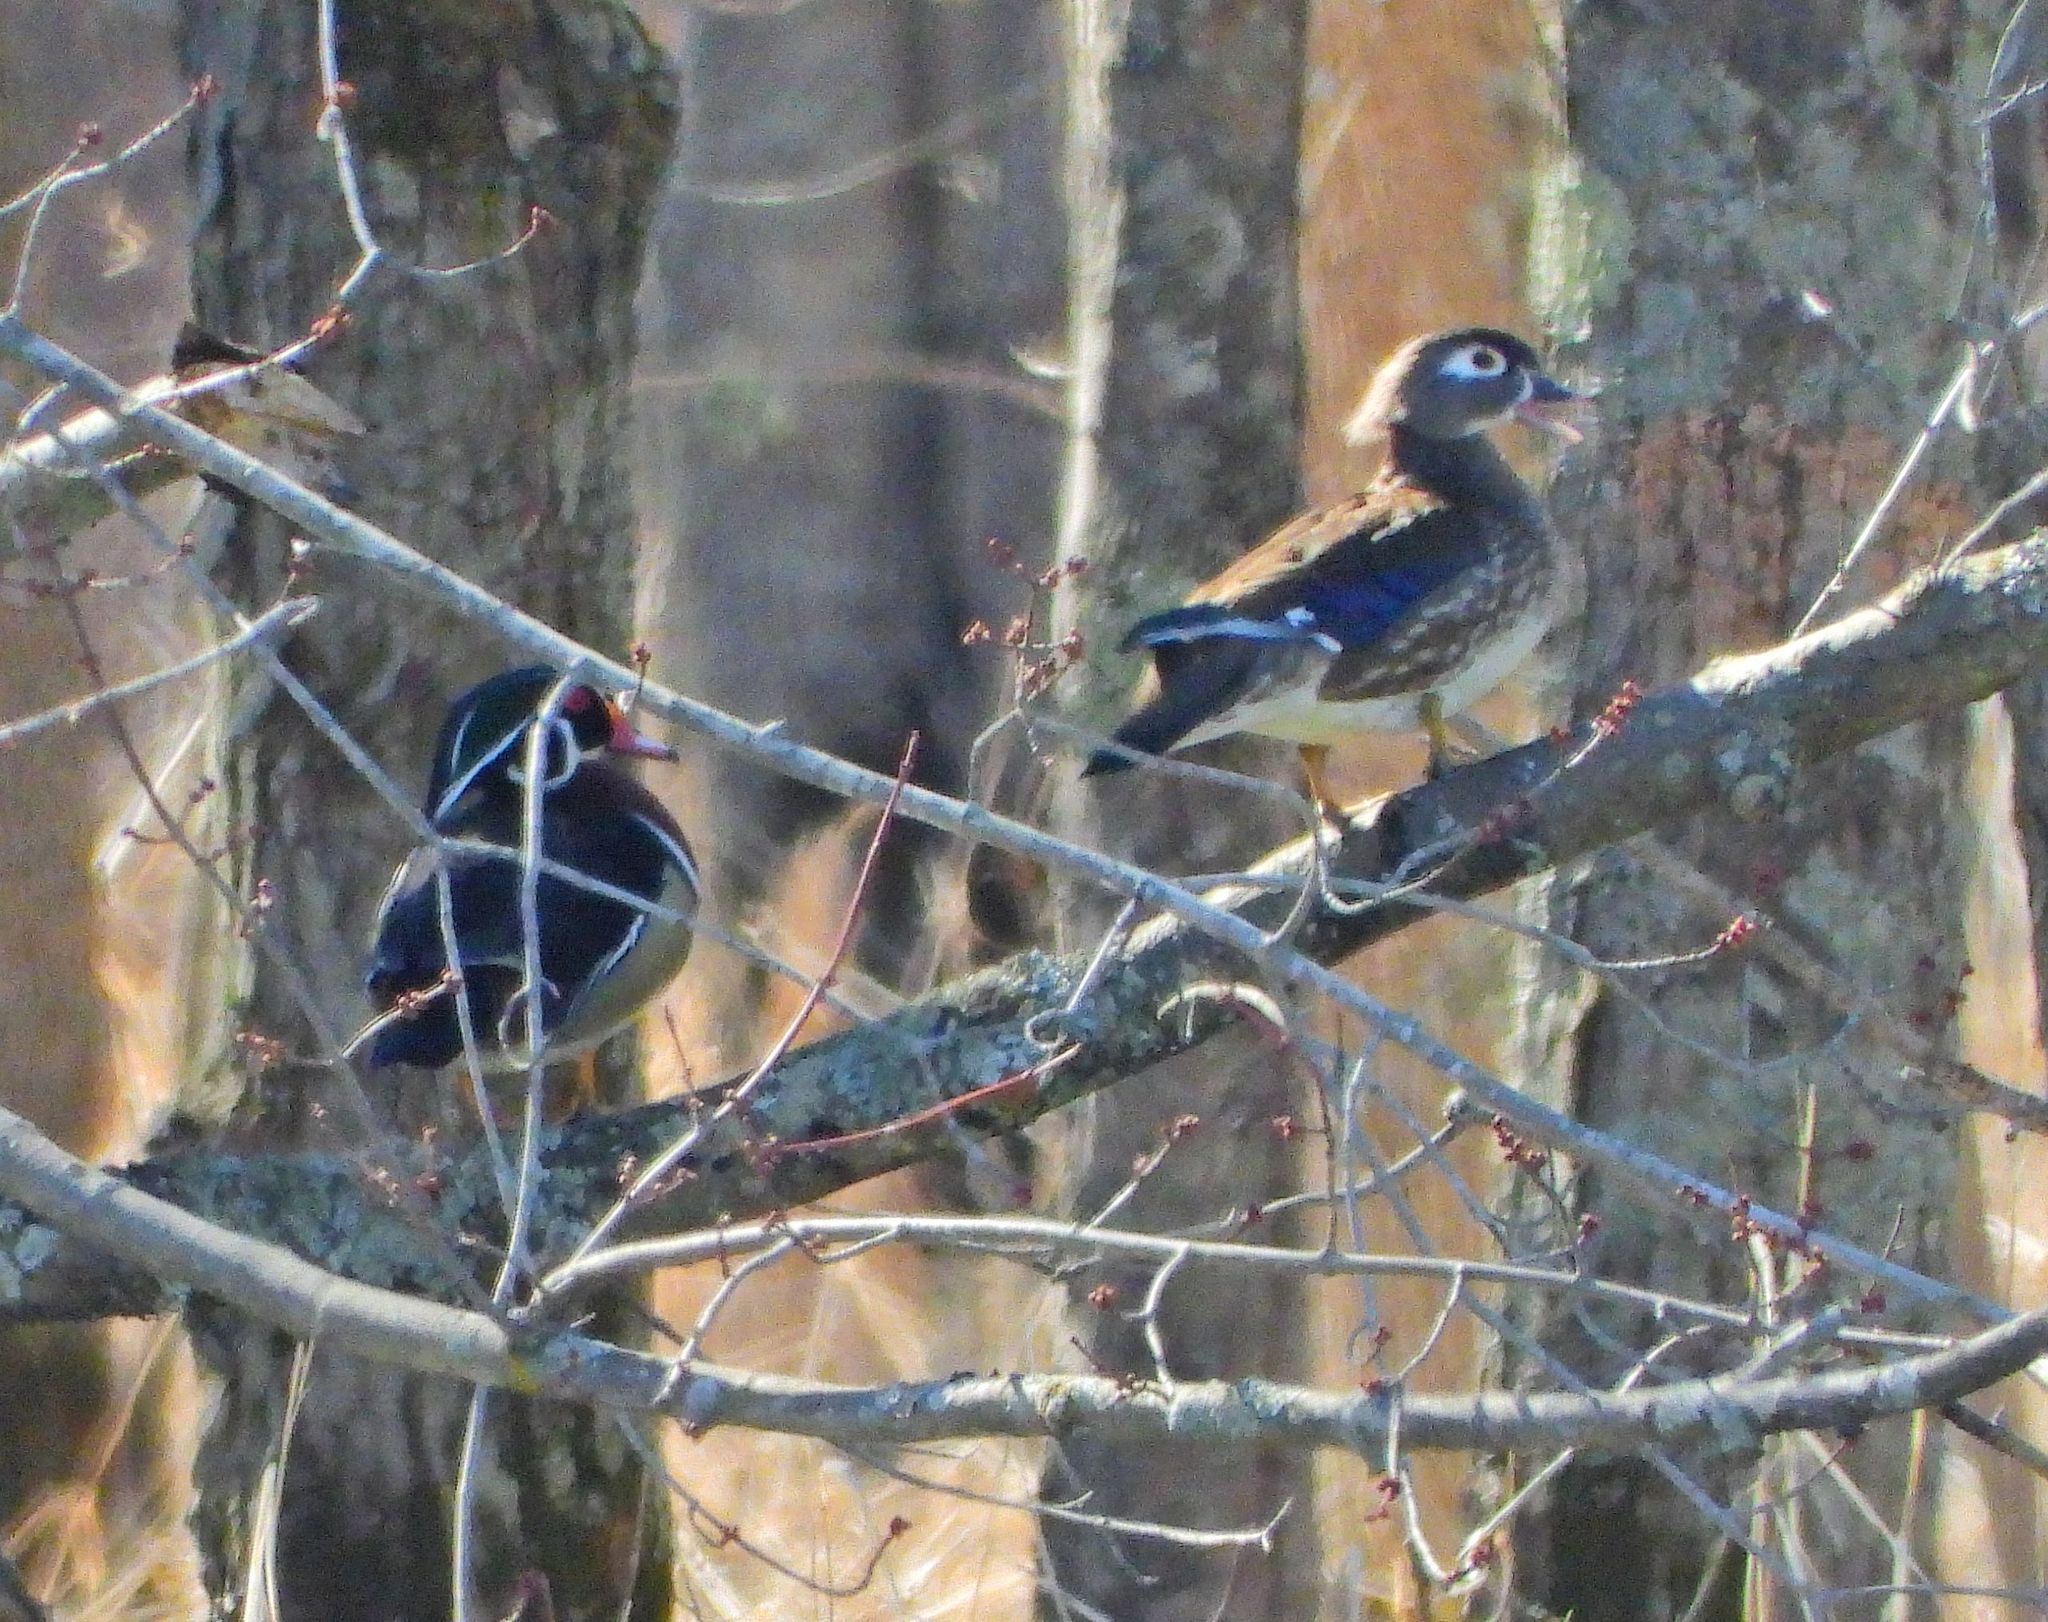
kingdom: Animalia
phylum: Chordata
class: Aves
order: Anseriformes
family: Anatidae
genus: Aix
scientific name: Aix sponsa
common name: Wood duck
